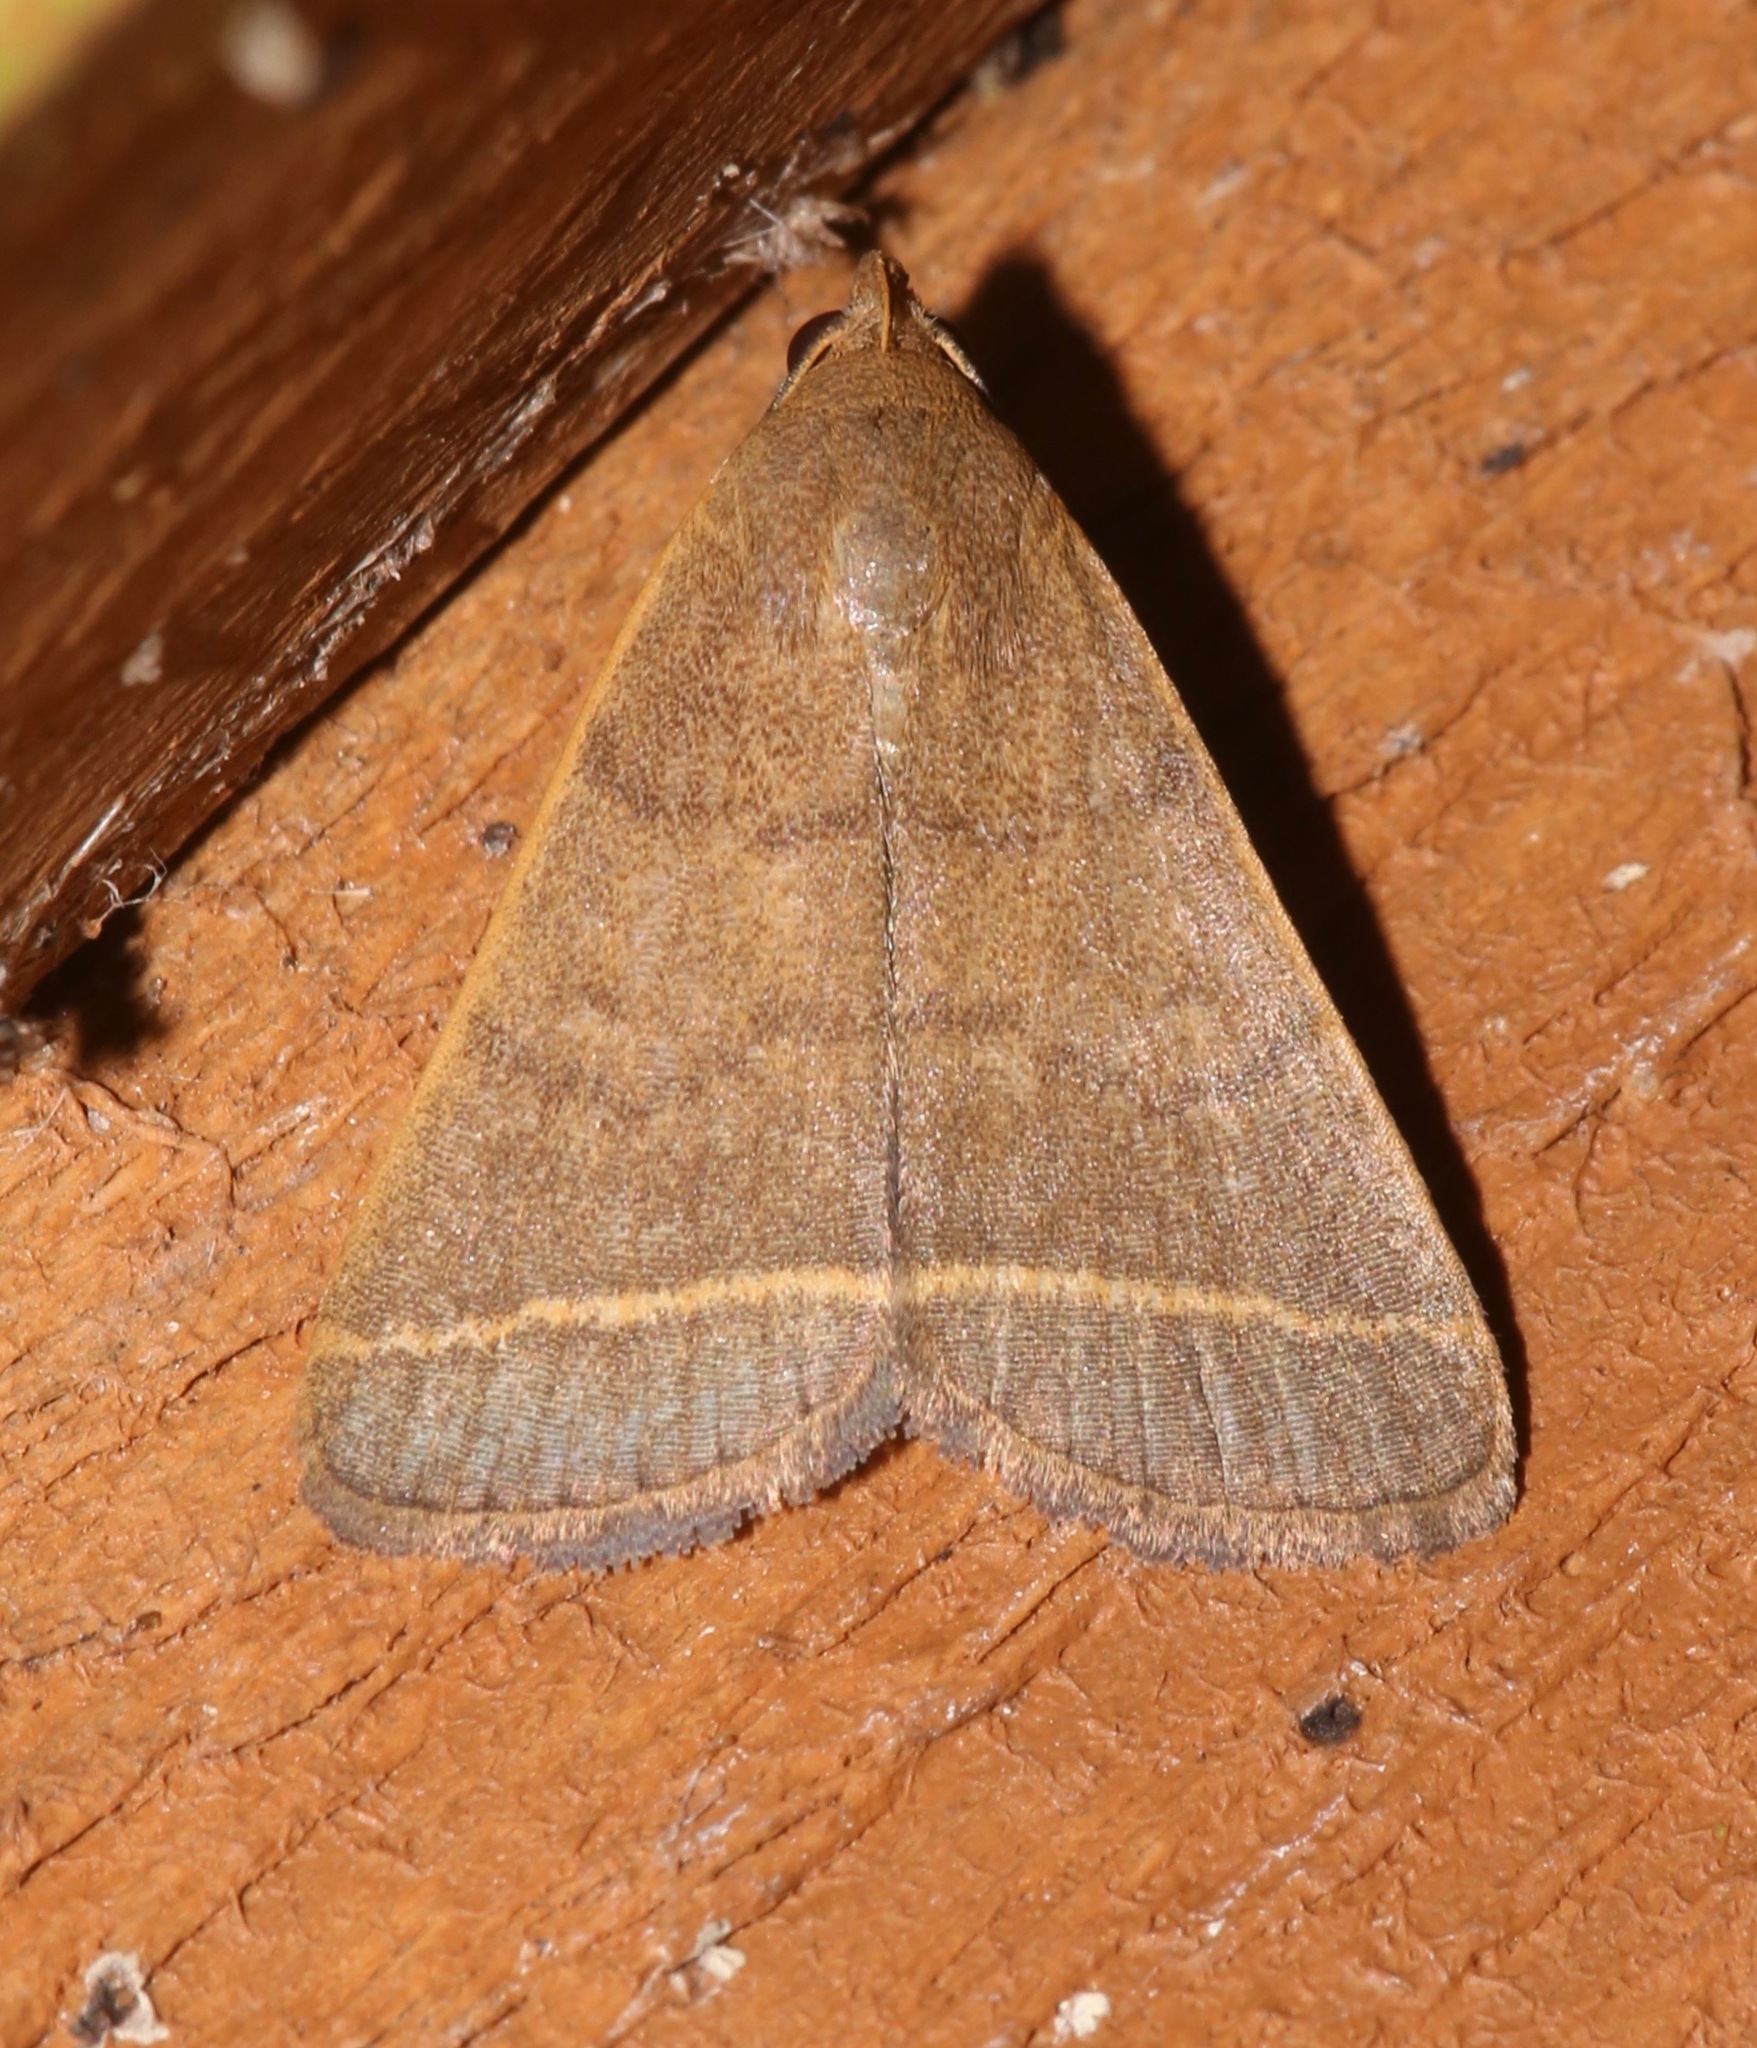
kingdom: Animalia
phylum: Arthropoda
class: Insecta
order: Lepidoptera
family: Erebidae
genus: Simplicia
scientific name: Simplicia cornicalis
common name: Tiki hut litter moth
